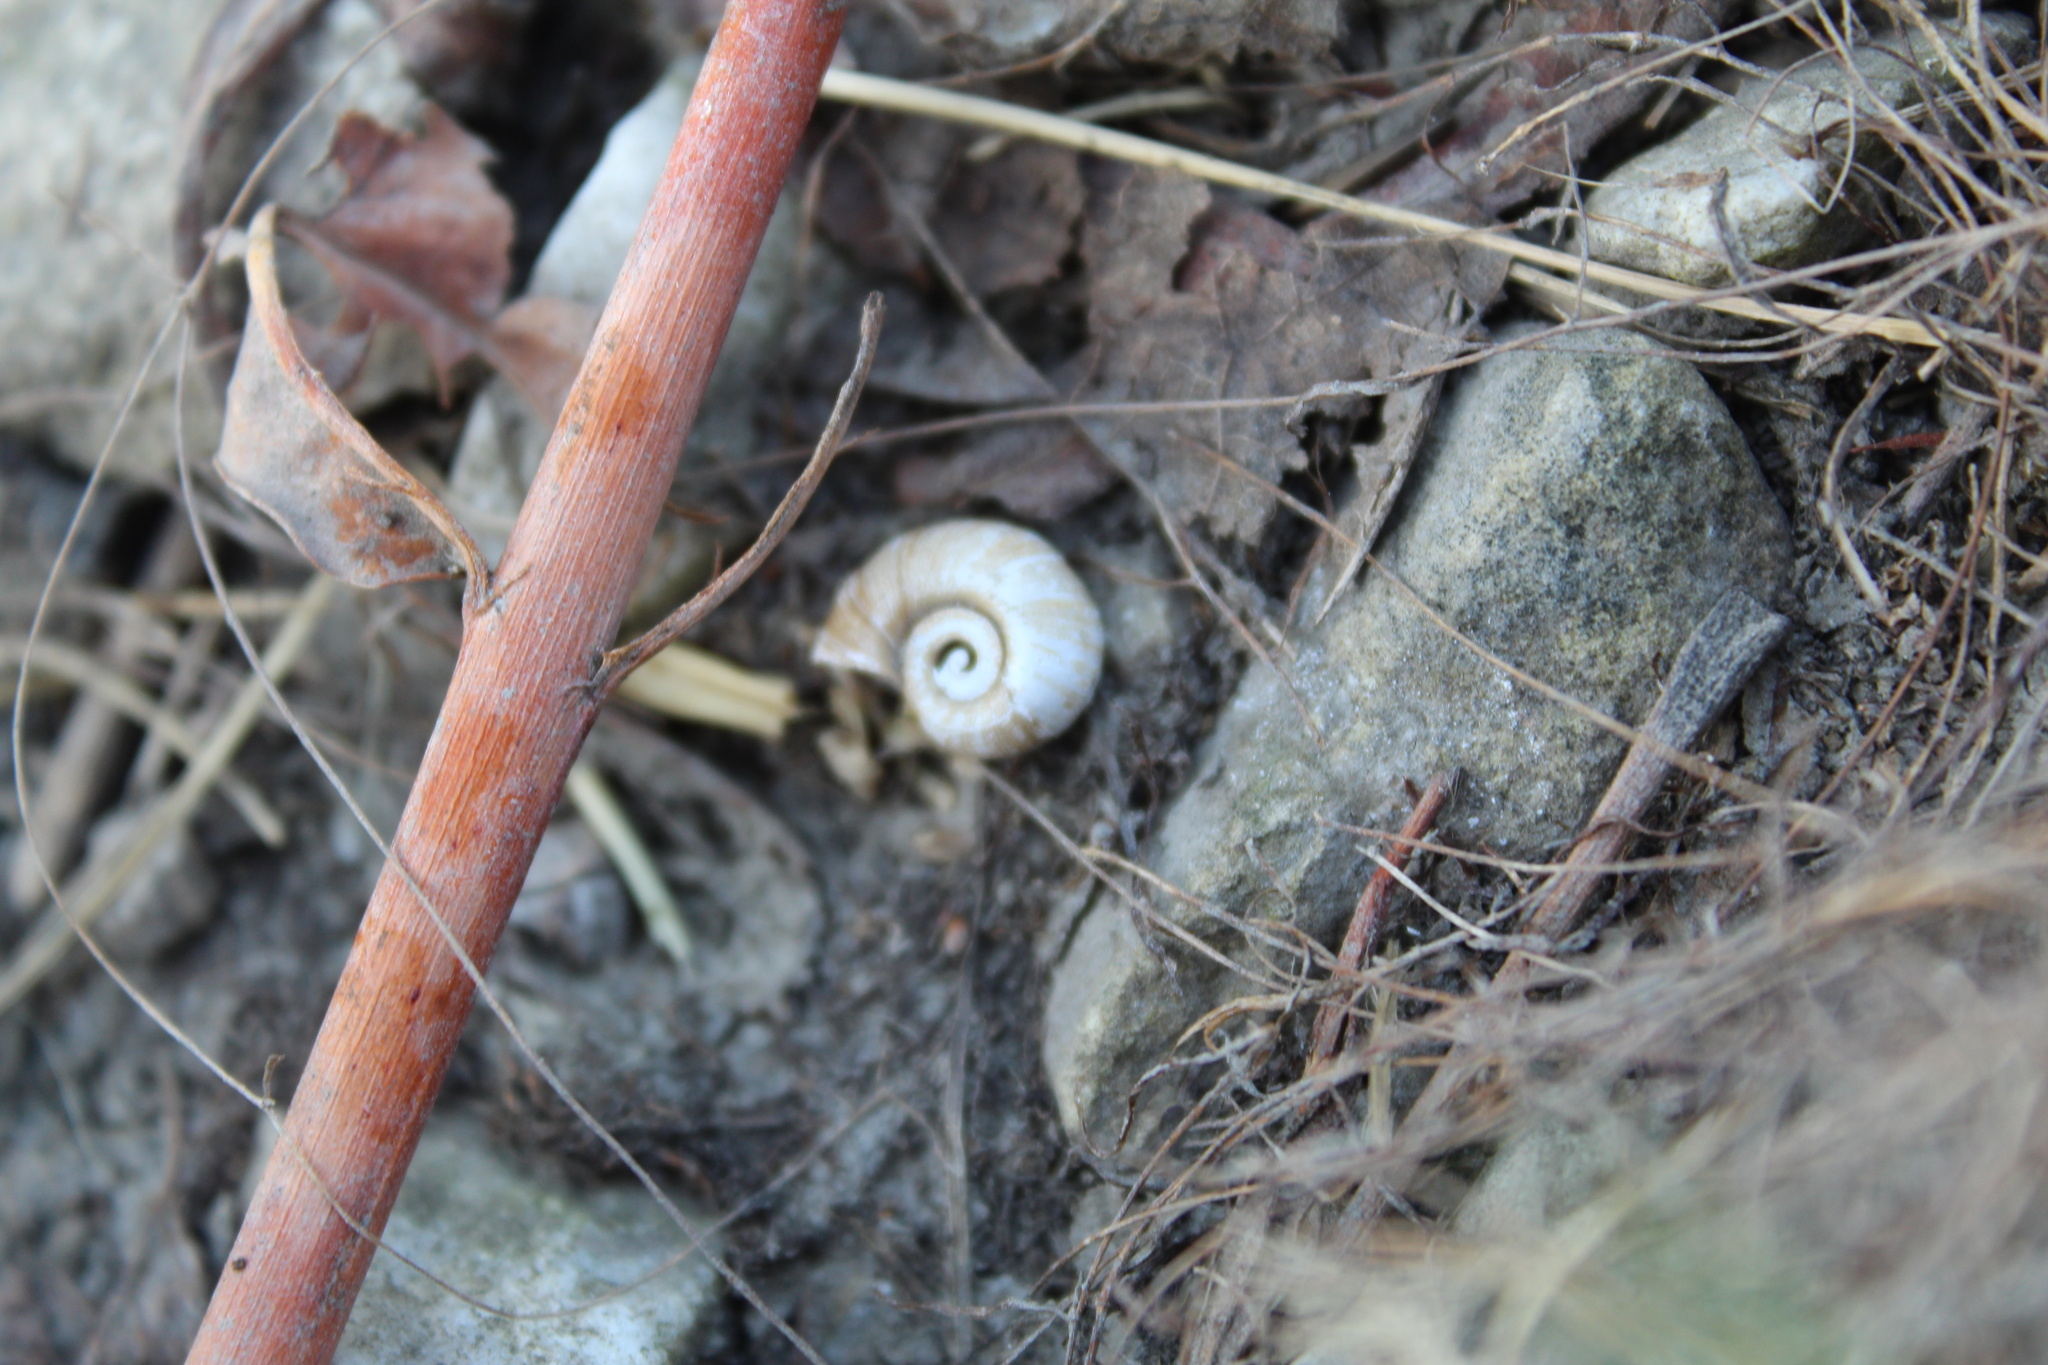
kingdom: Animalia
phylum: Mollusca
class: Gastropoda
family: Planorbidae
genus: Planorbella
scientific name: Planorbella trivolvis
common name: Marsh rams-horn
